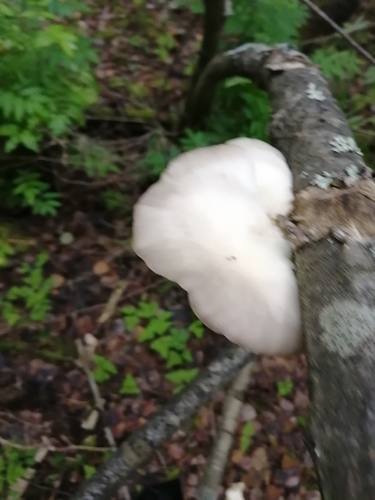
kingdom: Fungi
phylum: Basidiomycota
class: Agaricomycetes
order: Agaricales
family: Pleurotaceae
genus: Pleurotus
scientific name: Pleurotus pulmonarius
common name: Pale oyster
